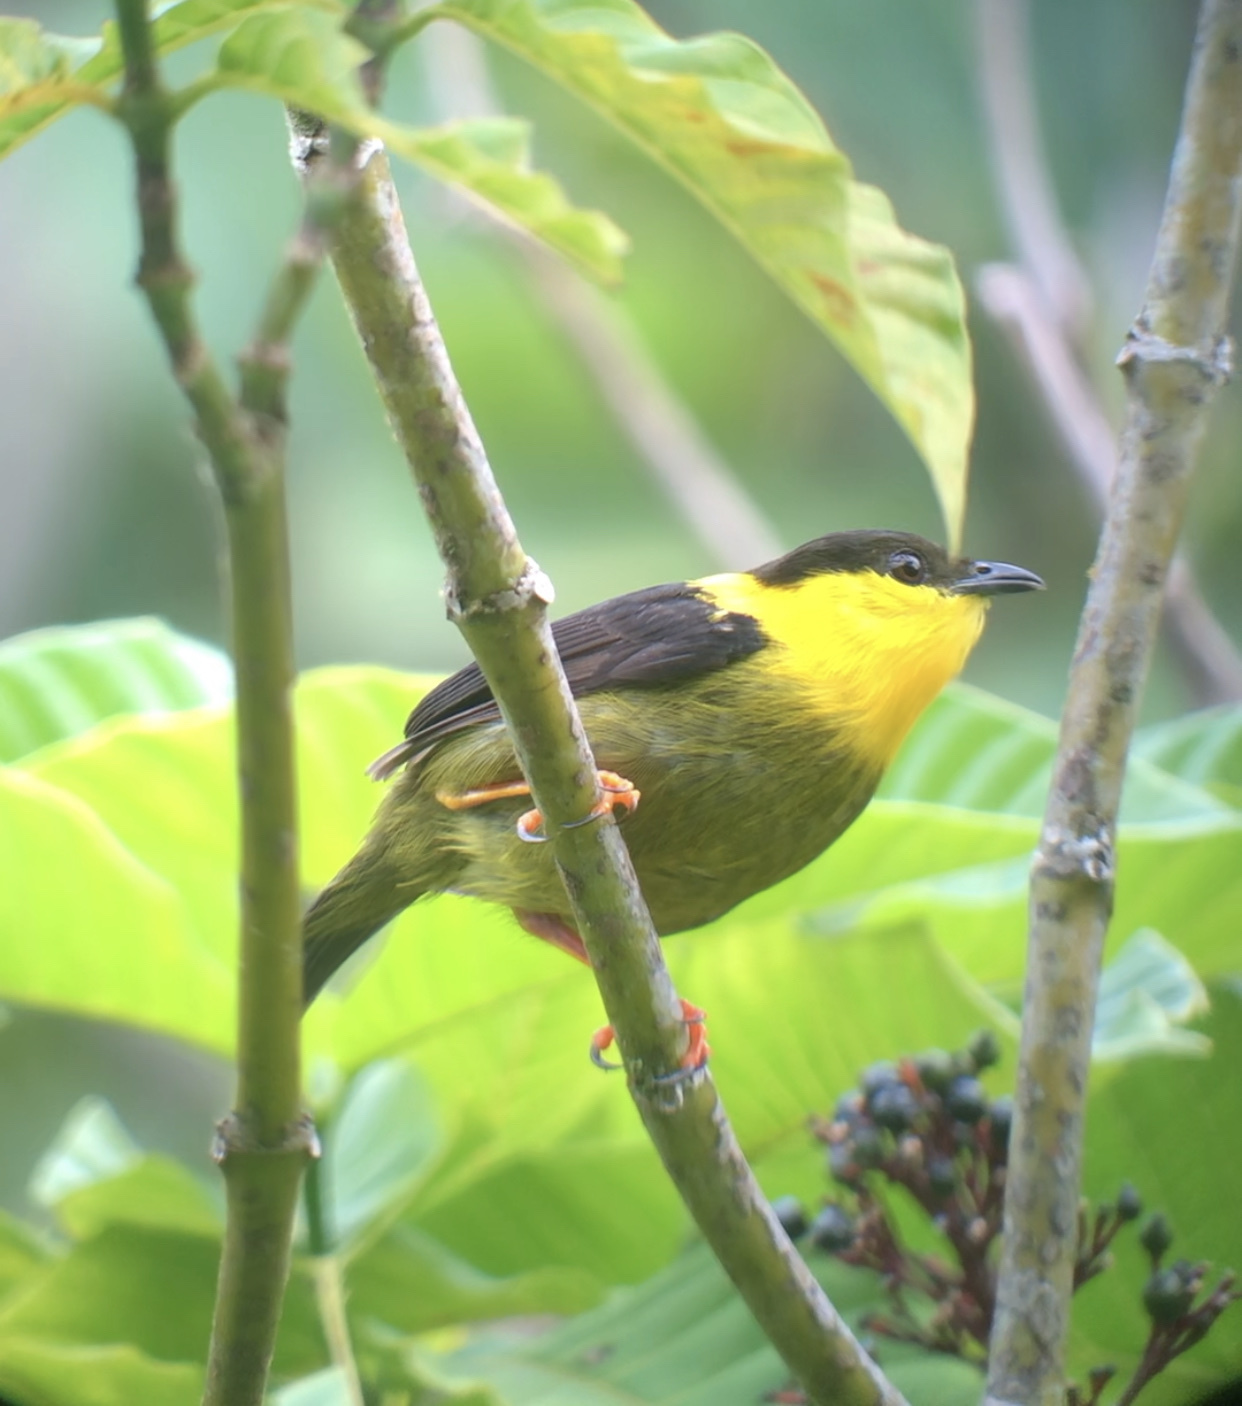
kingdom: Animalia
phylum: Chordata
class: Aves
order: Passeriformes
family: Pipridae
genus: Manacus
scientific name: Manacus vitellinus
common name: Golden-collared manakin
